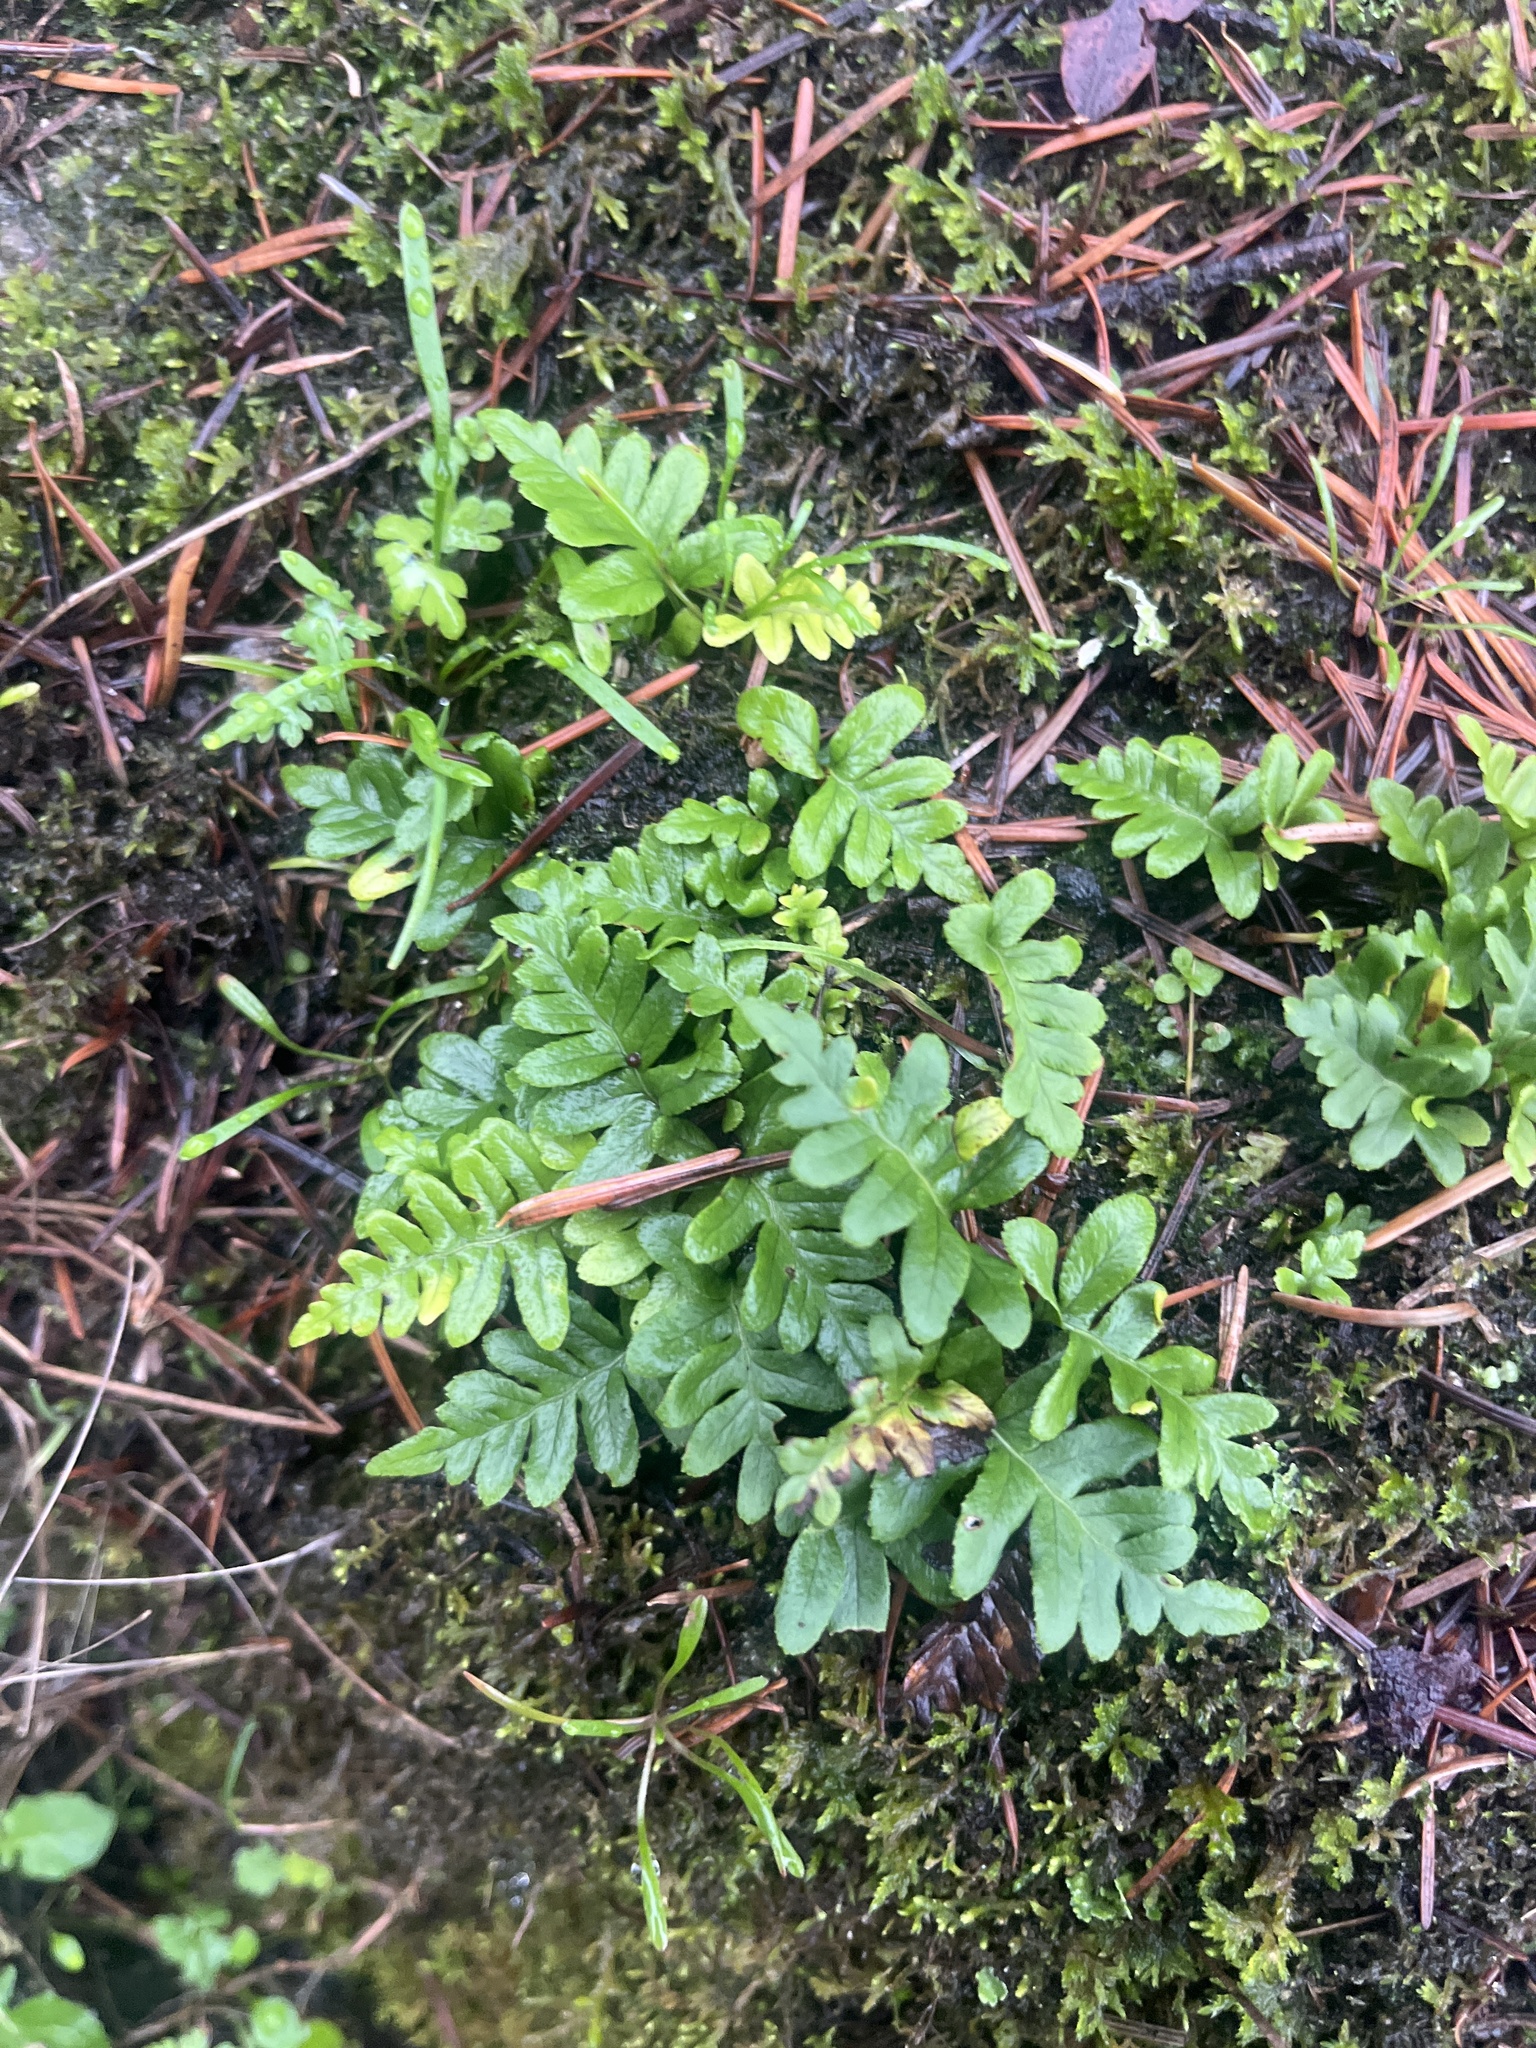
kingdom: Plantae
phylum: Tracheophyta
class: Polypodiopsida
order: Polypodiales
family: Polypodiaceae
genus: Polypodium
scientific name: Polypodium glycyrrhiza
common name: Licorice fern
